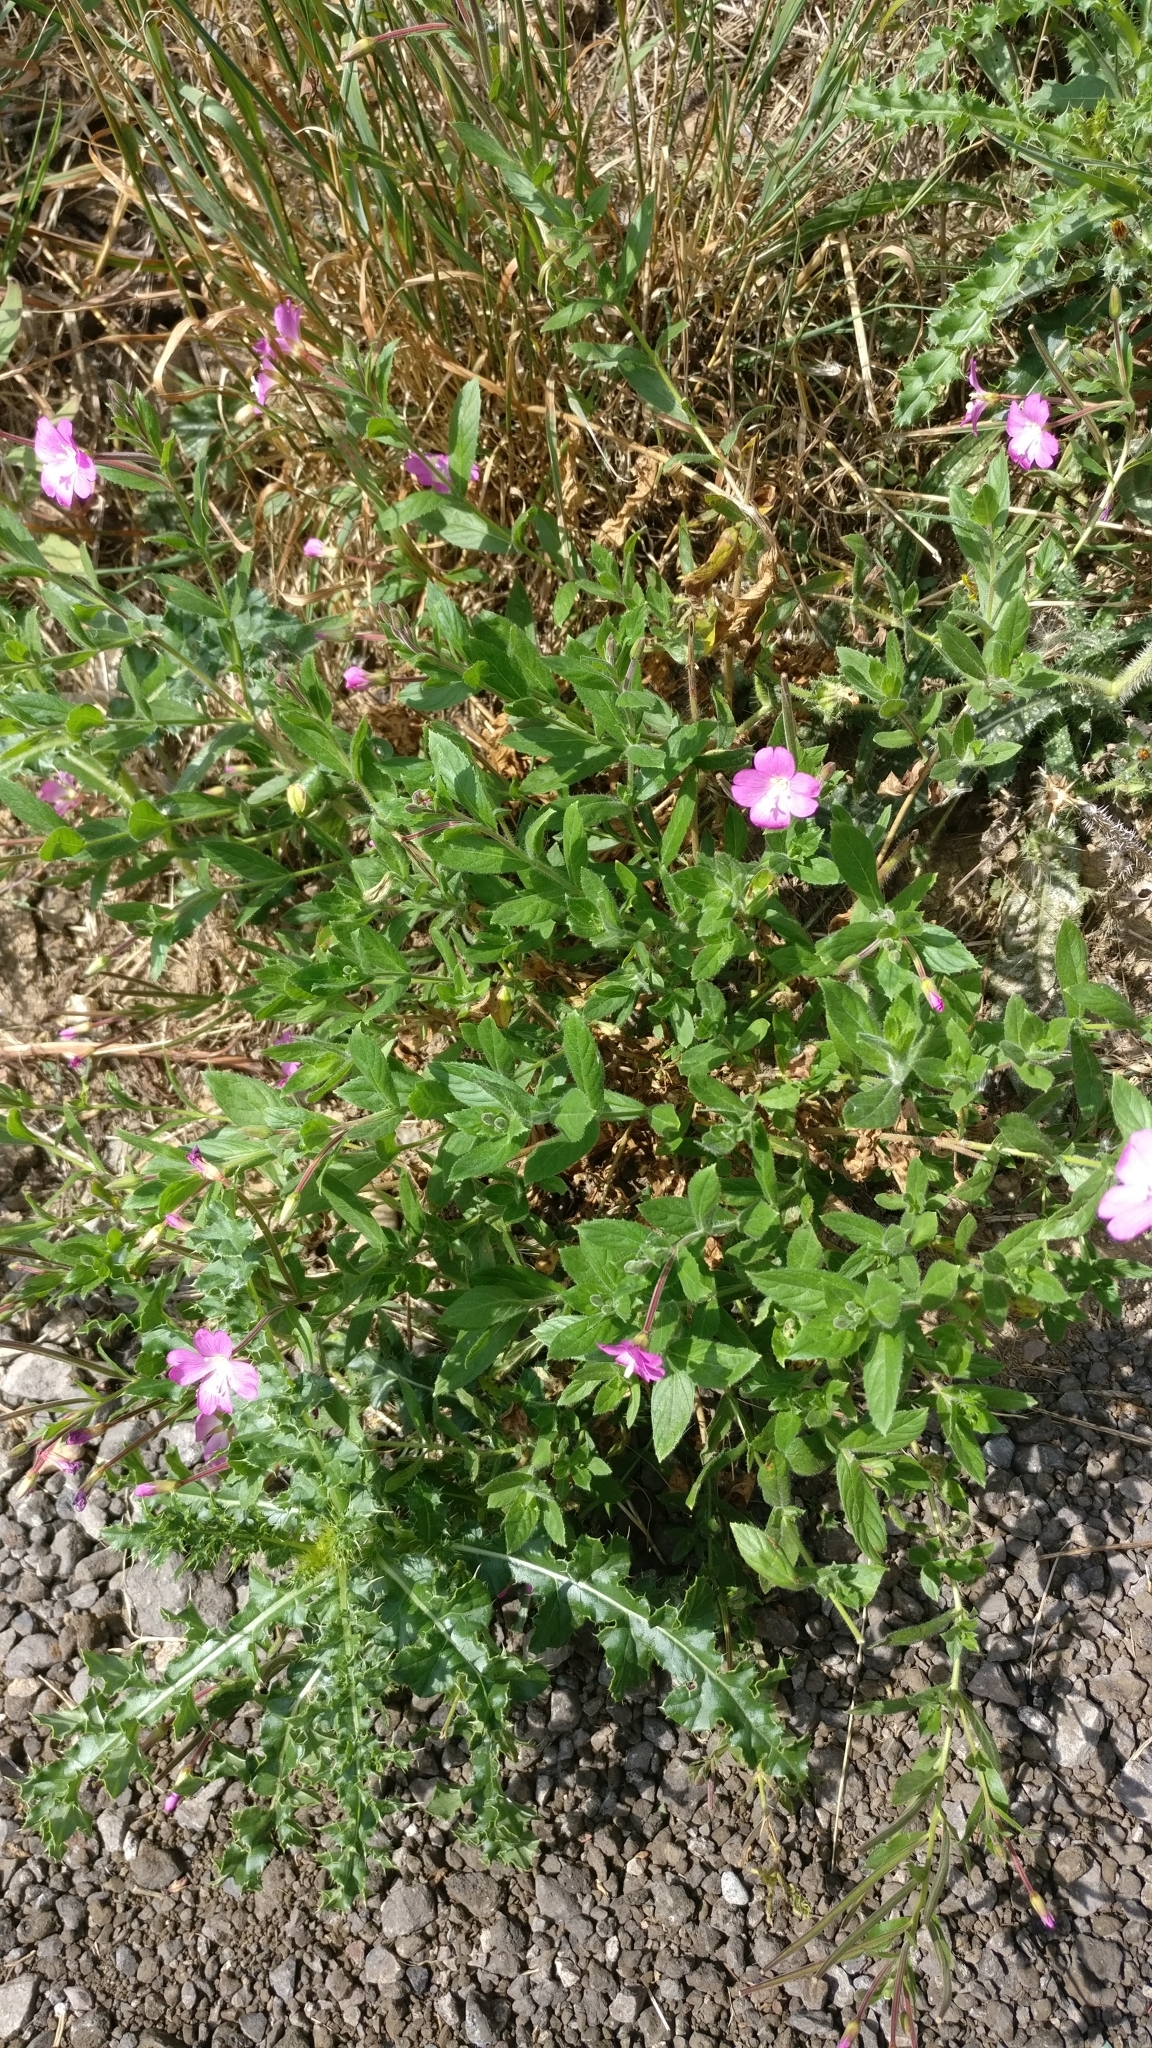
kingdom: Plantae
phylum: Tracheophyta
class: Magnoliopsida
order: Myrtales
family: Onagraceae
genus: Epilobium
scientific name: Epilobium hirsutum
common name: Great willowherb
